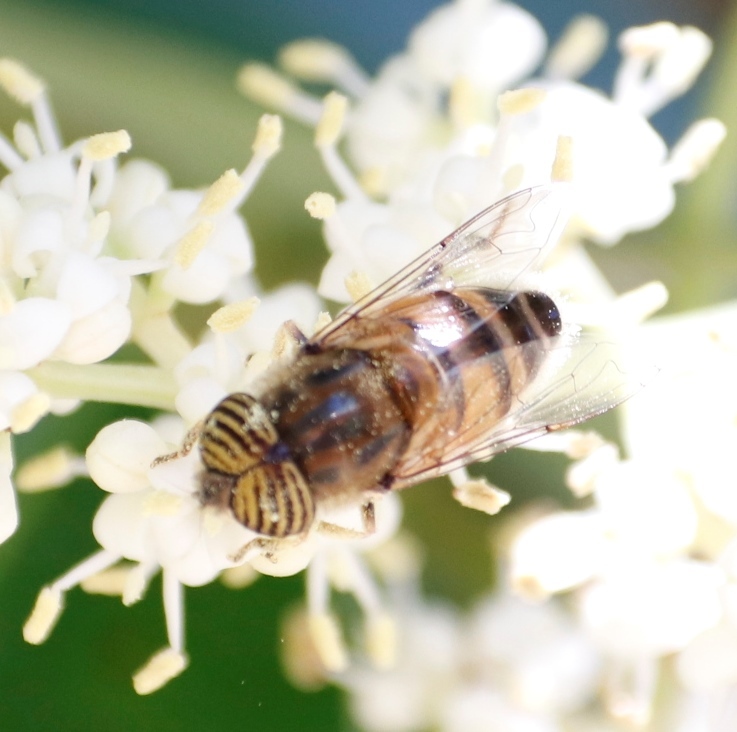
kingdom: Animalia
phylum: Arthropoda
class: Insecta
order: Diptera
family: Syrphidae
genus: Eristalinus
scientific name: Eristalinus taeniops
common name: Syrphid fly
